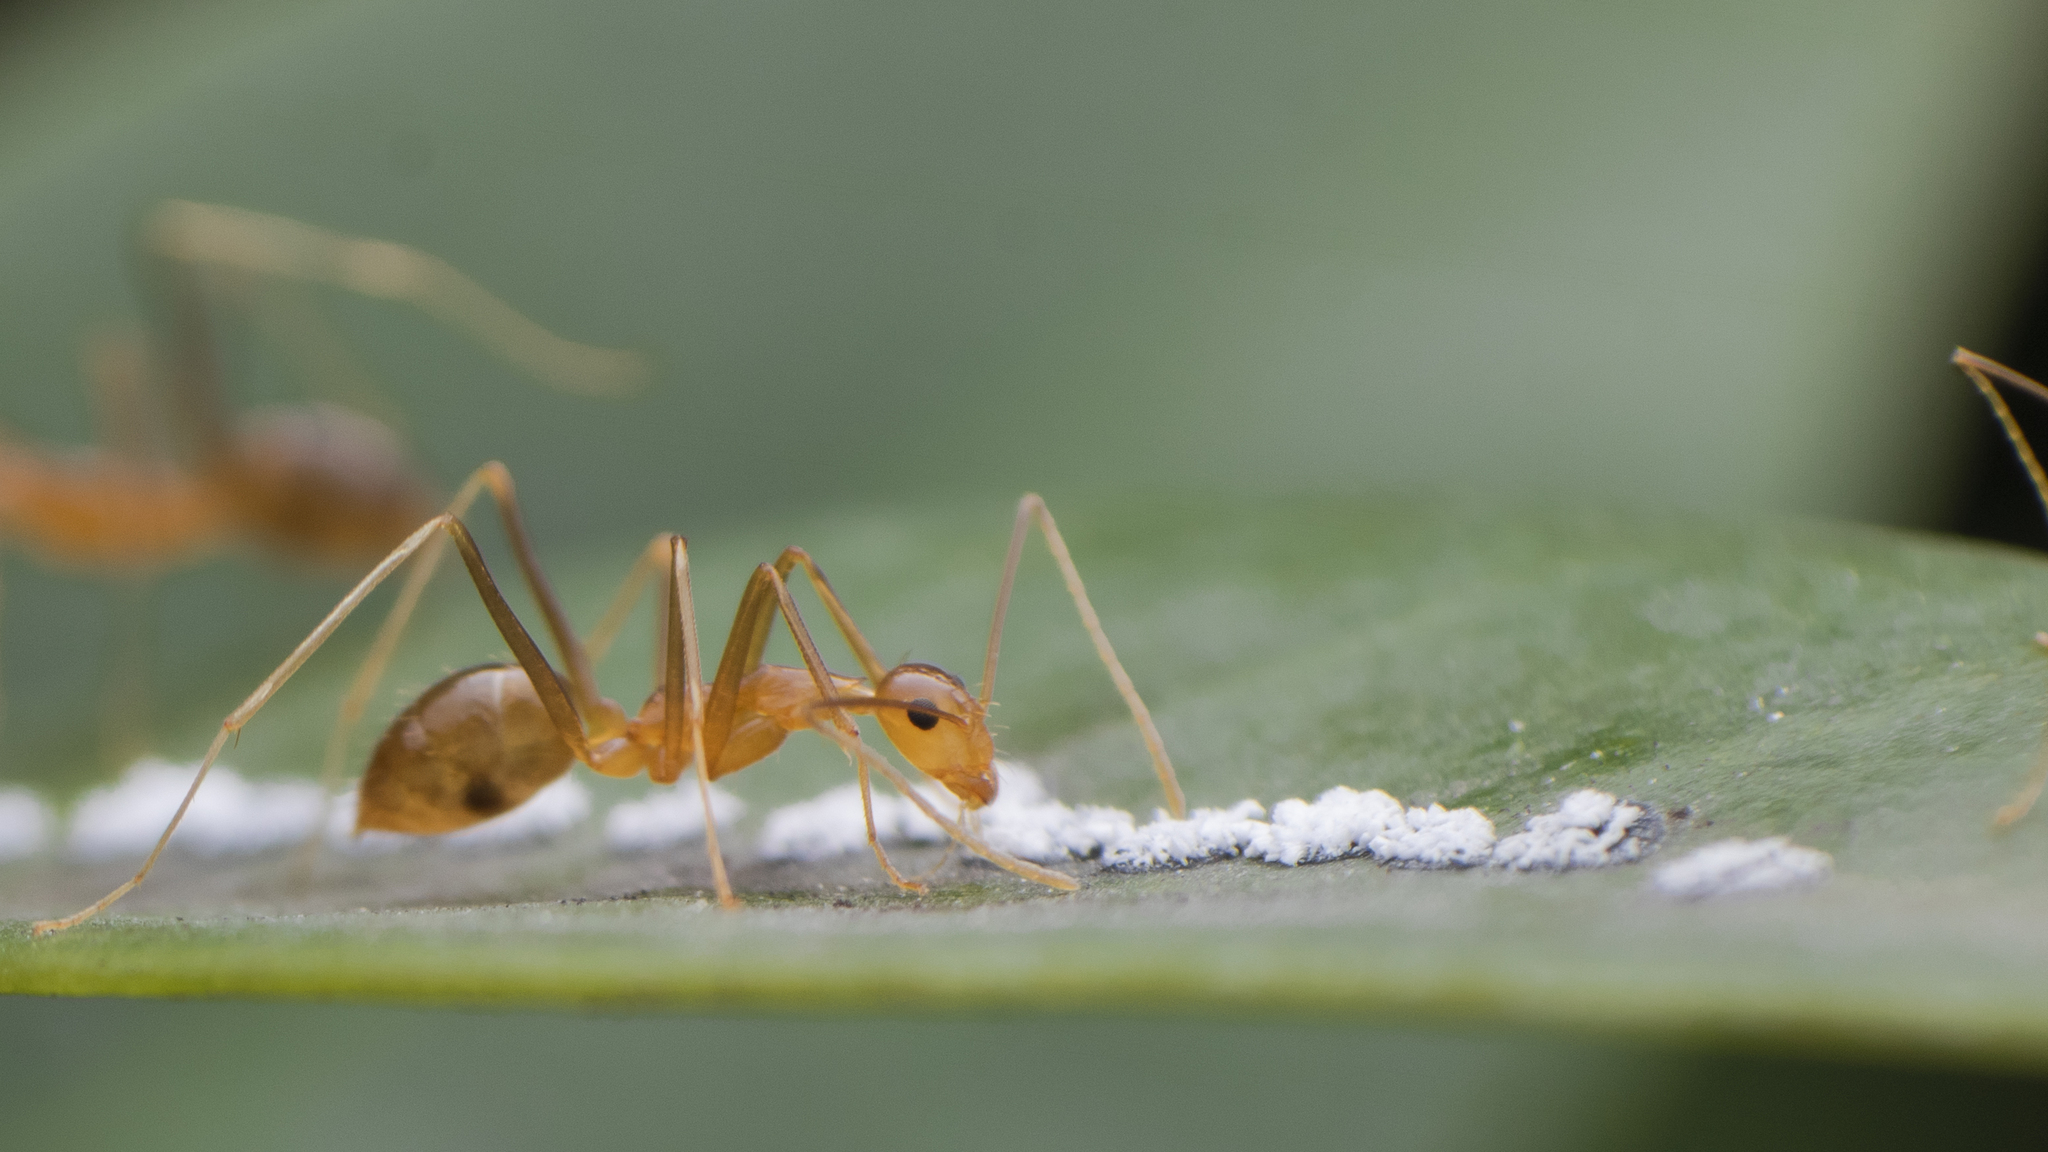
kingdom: Animalia
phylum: Arthropoda
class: Insecta
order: Hymenoptera
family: Formicidae
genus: Anoplolepis
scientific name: Anoplolepis gracilipes
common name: Ant
